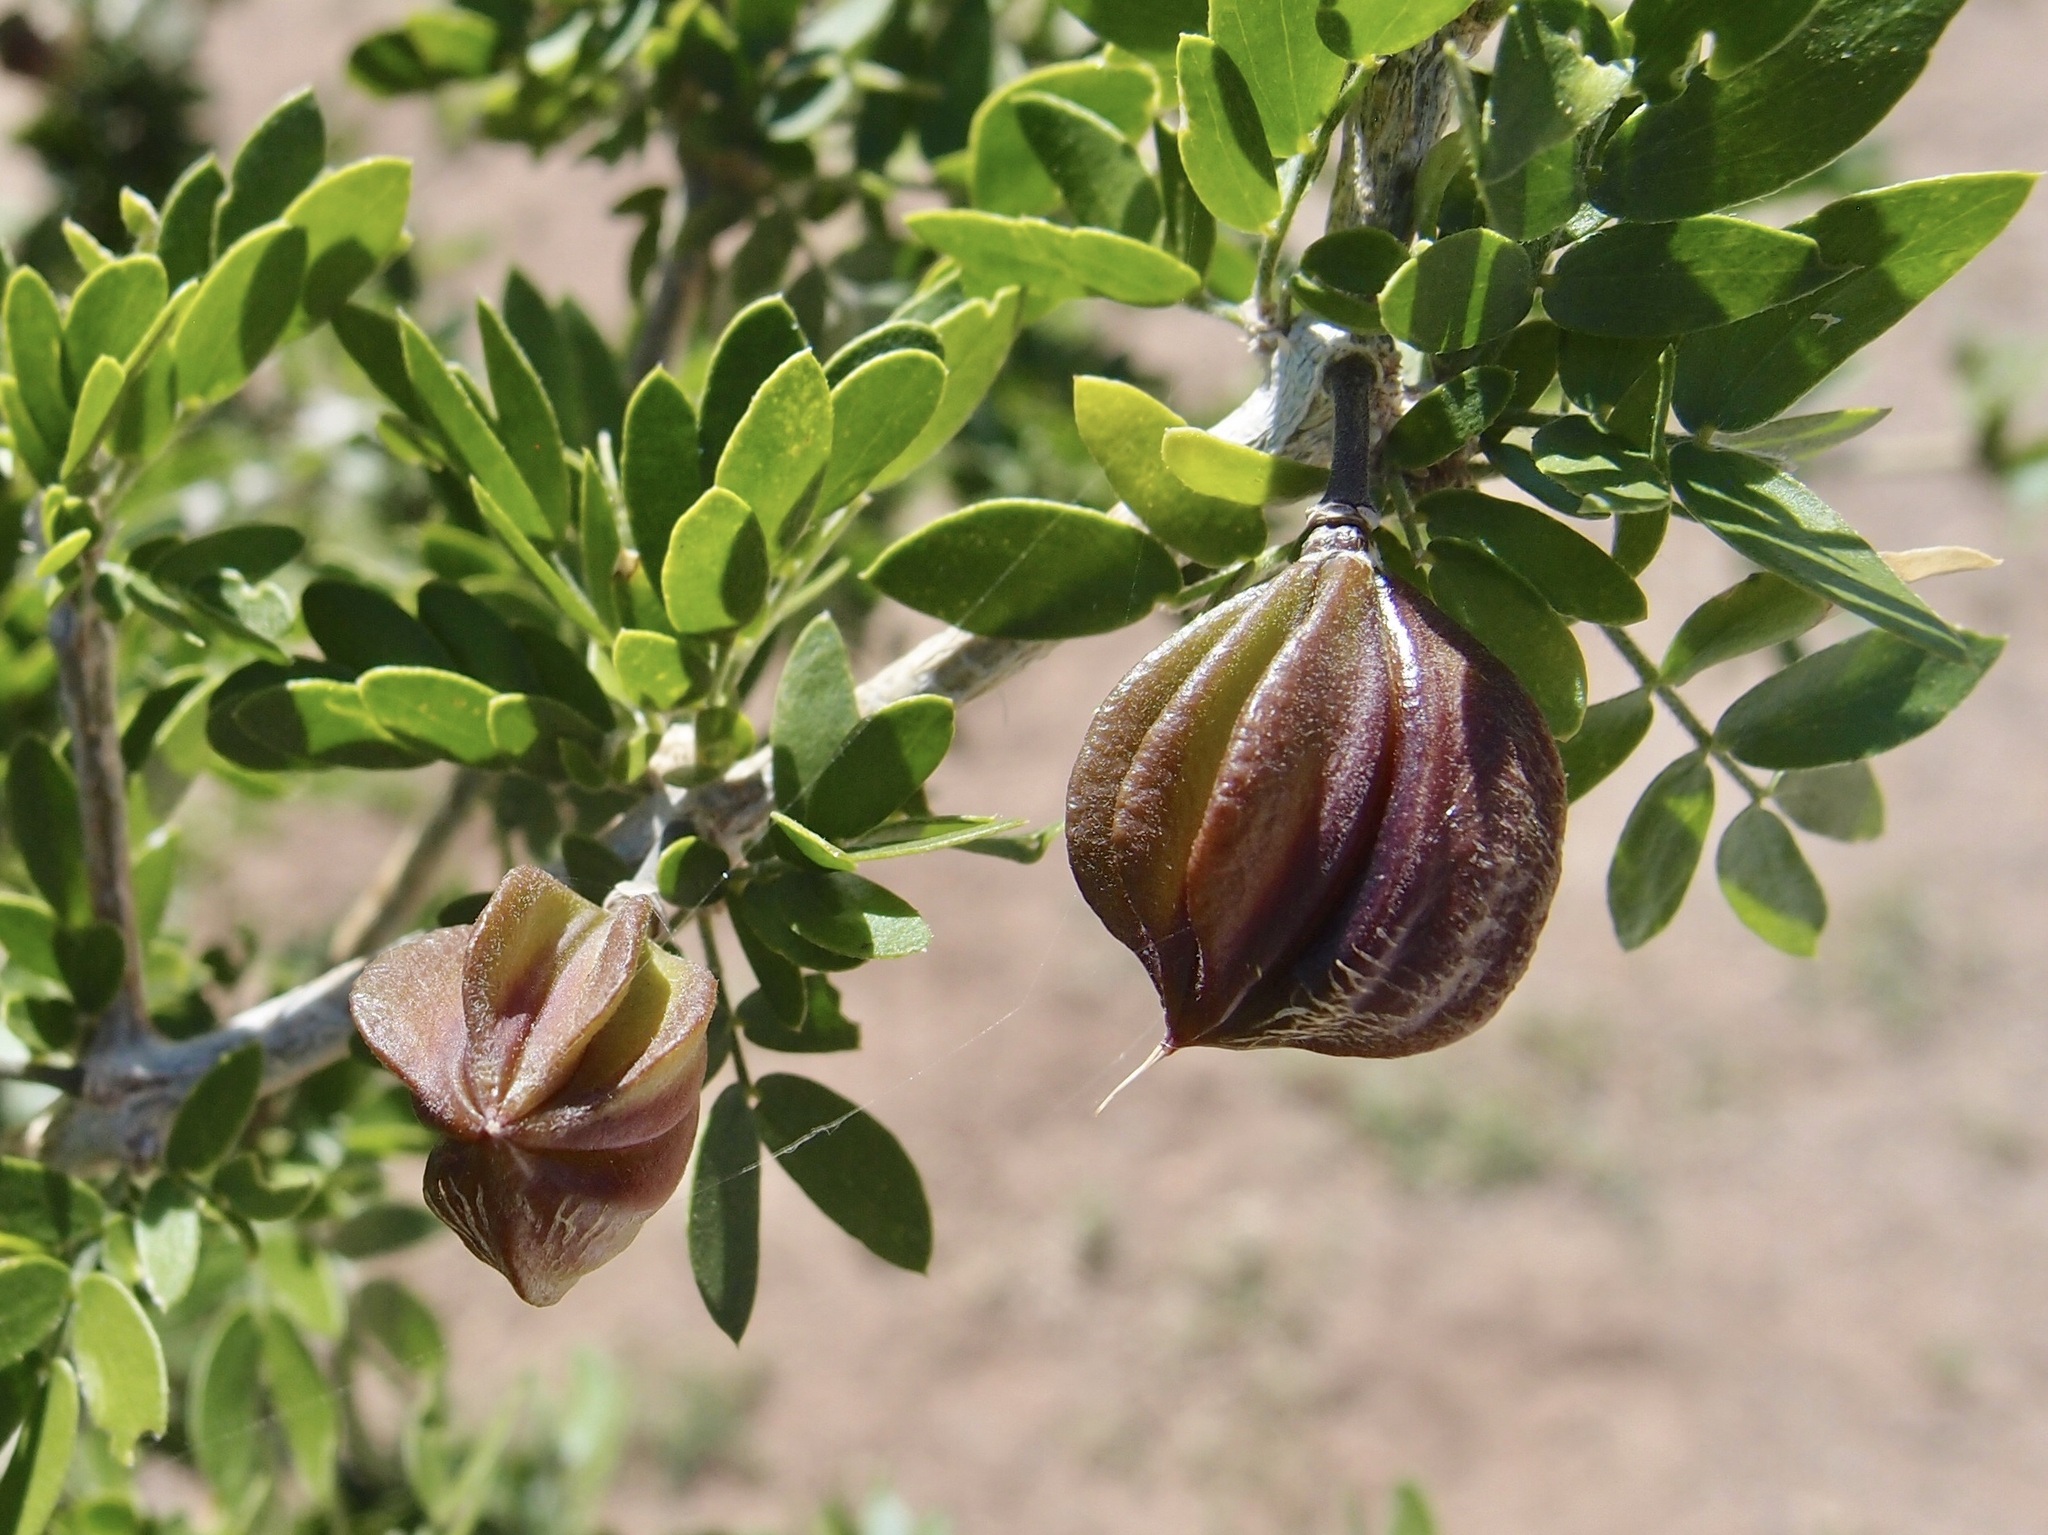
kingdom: Plantae
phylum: Tracheophyta
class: Magnoliopsida
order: Zygophyllales
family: Zygophyllaceae
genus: Guaiacum
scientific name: Guaiacum coulteri
